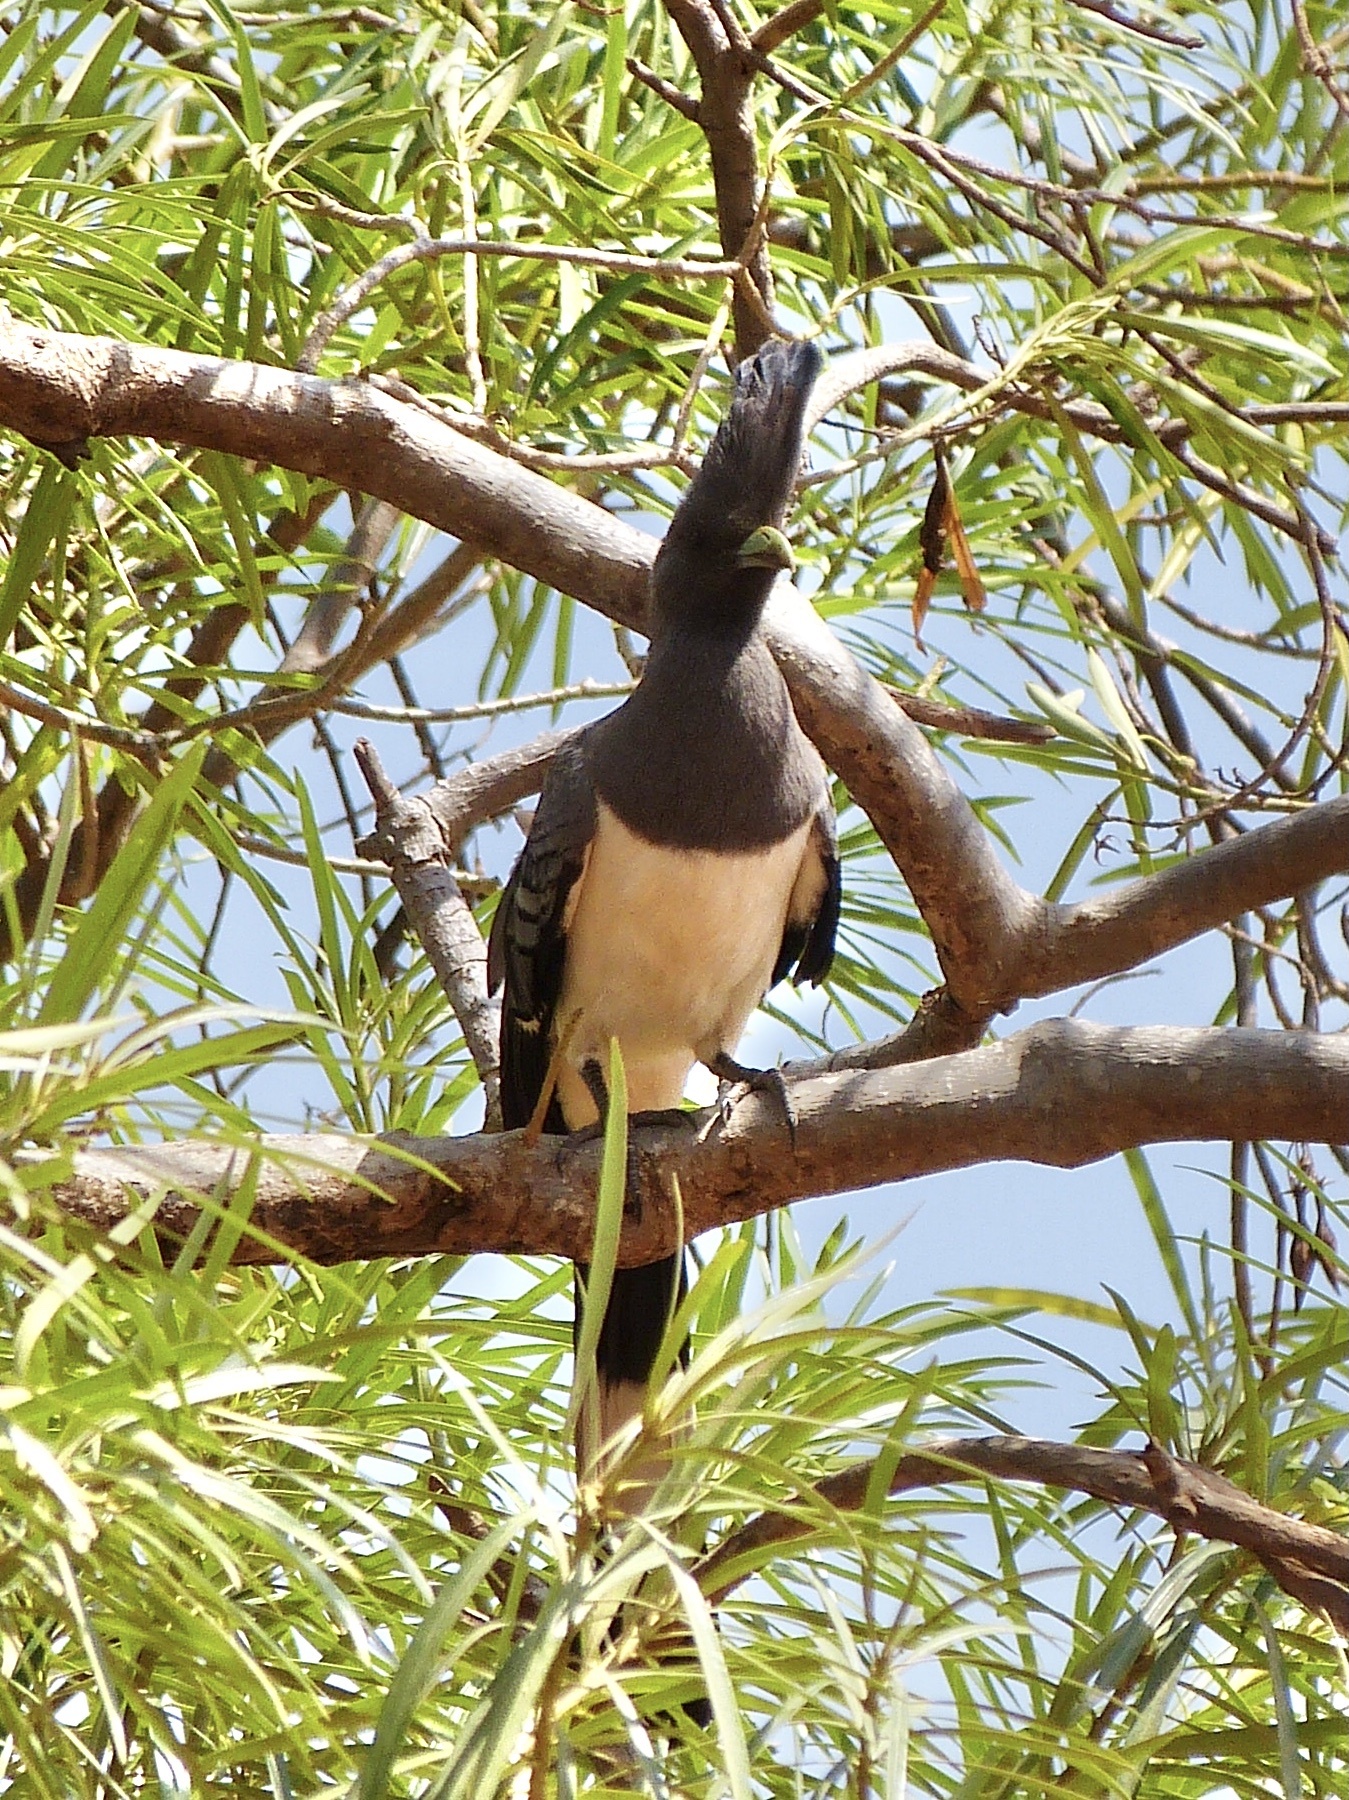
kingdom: Animalia
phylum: Chordata
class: Aves
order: Musophagiformes
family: Musophagidae
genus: Corythaixoides
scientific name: Corythaixoides leucogaster
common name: White-bellied go-away-bird
